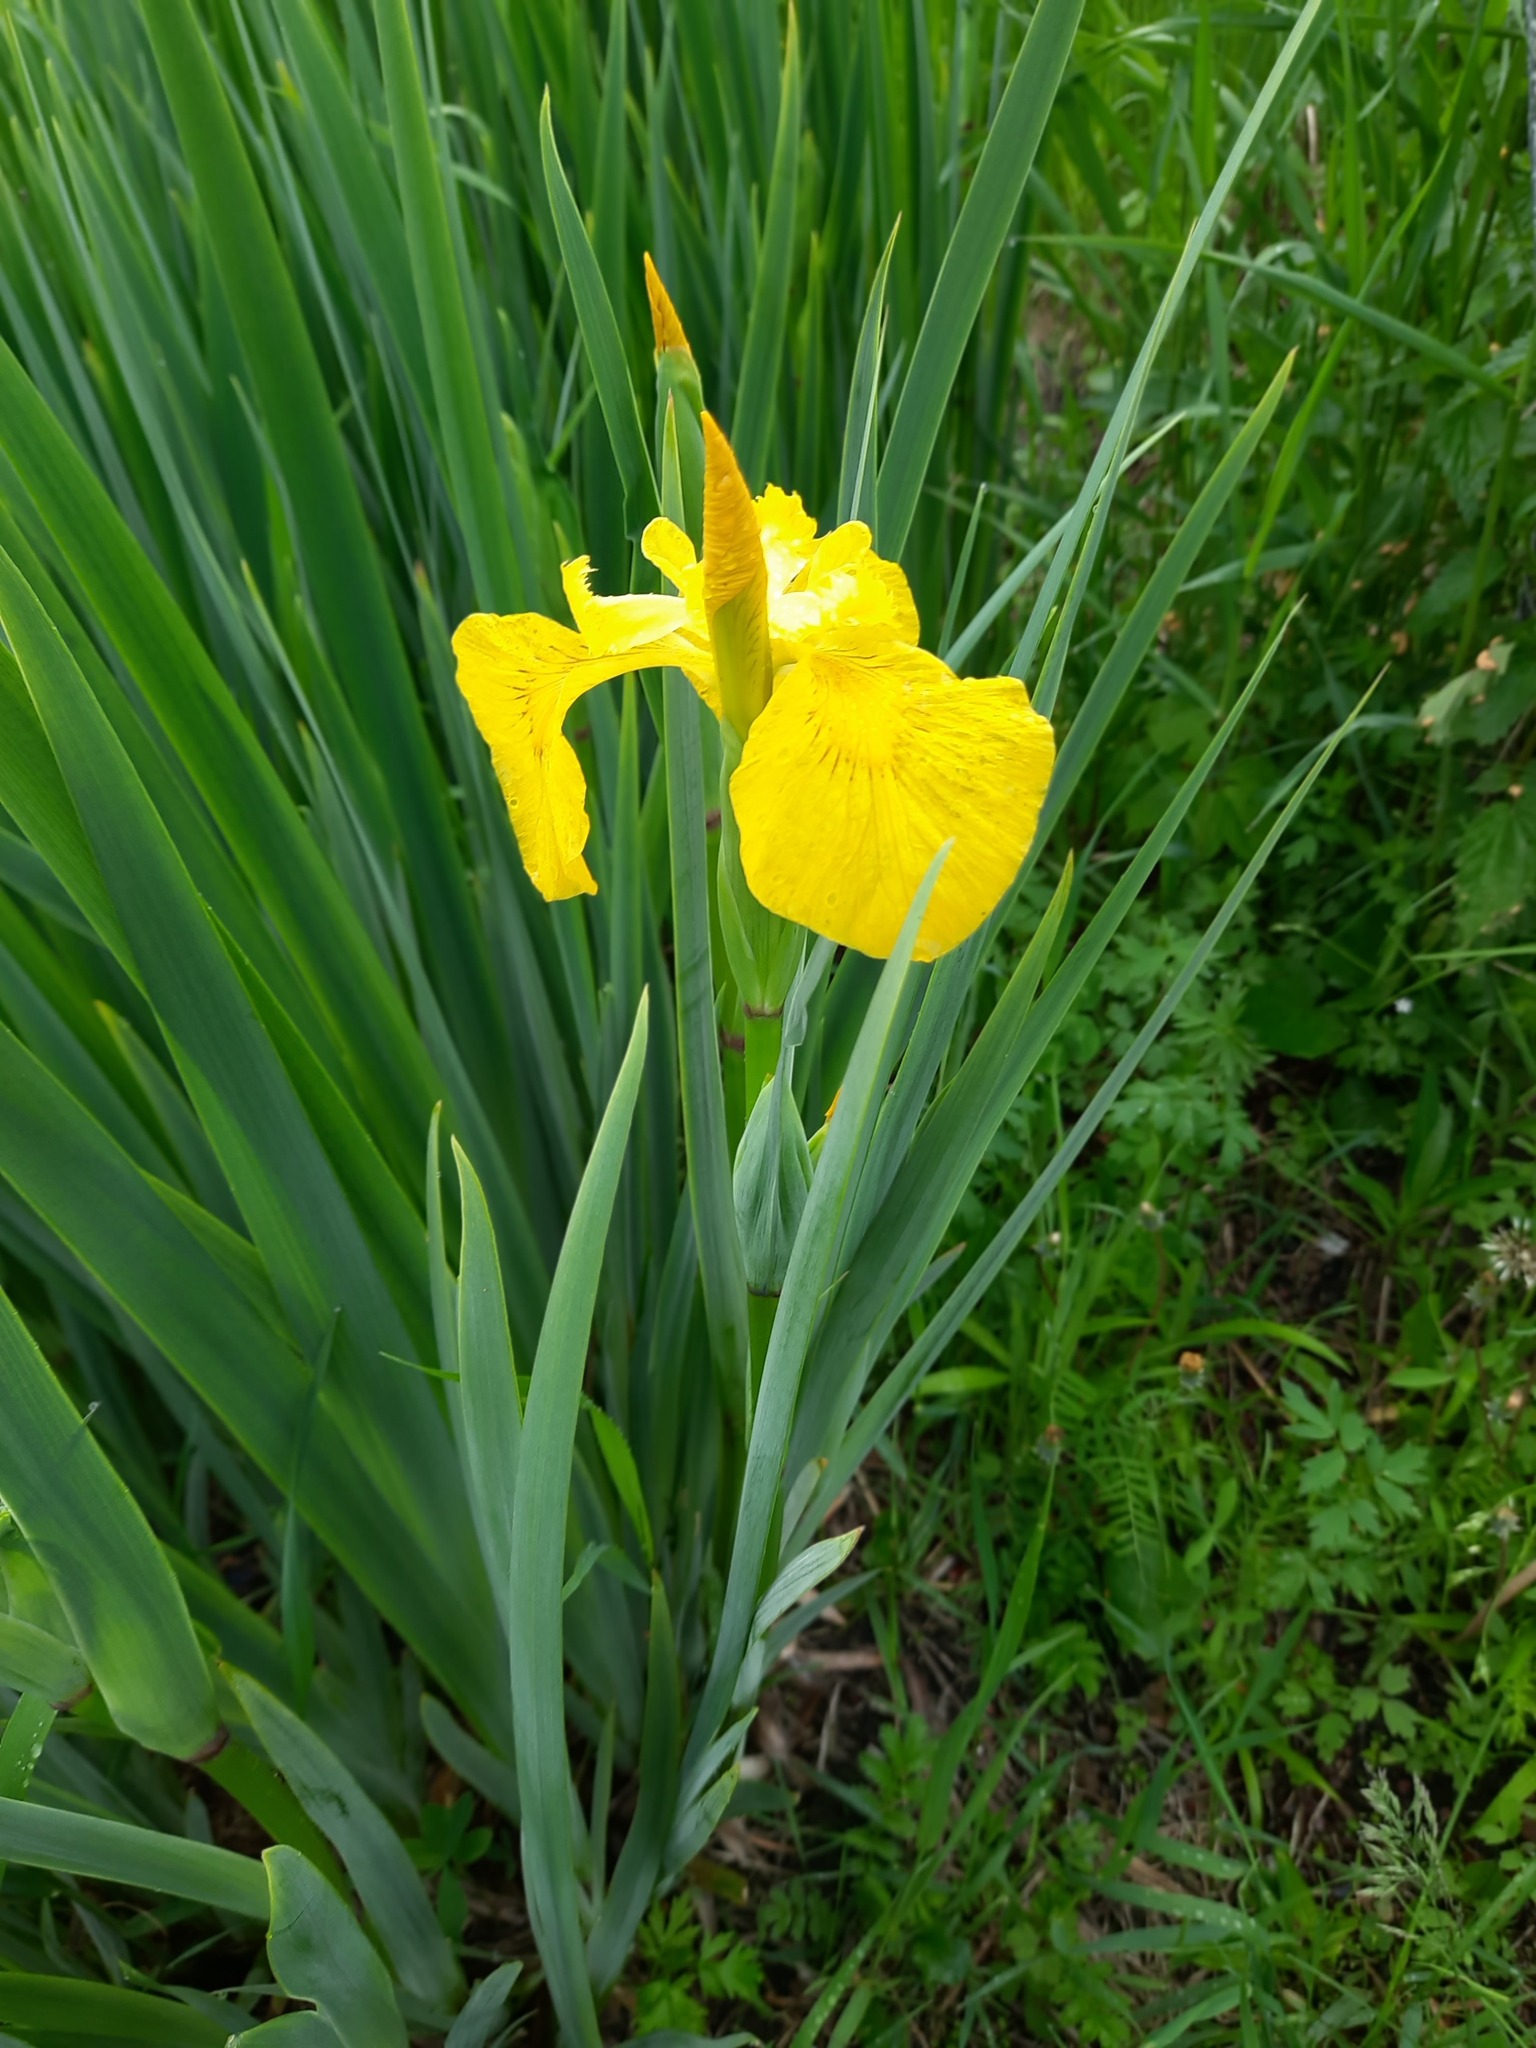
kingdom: Plantae
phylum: Tracheophyta
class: Liliopsida
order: Asparagales
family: Iridaceae
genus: Iris
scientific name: Iris pseudacorus
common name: Yellow flag
